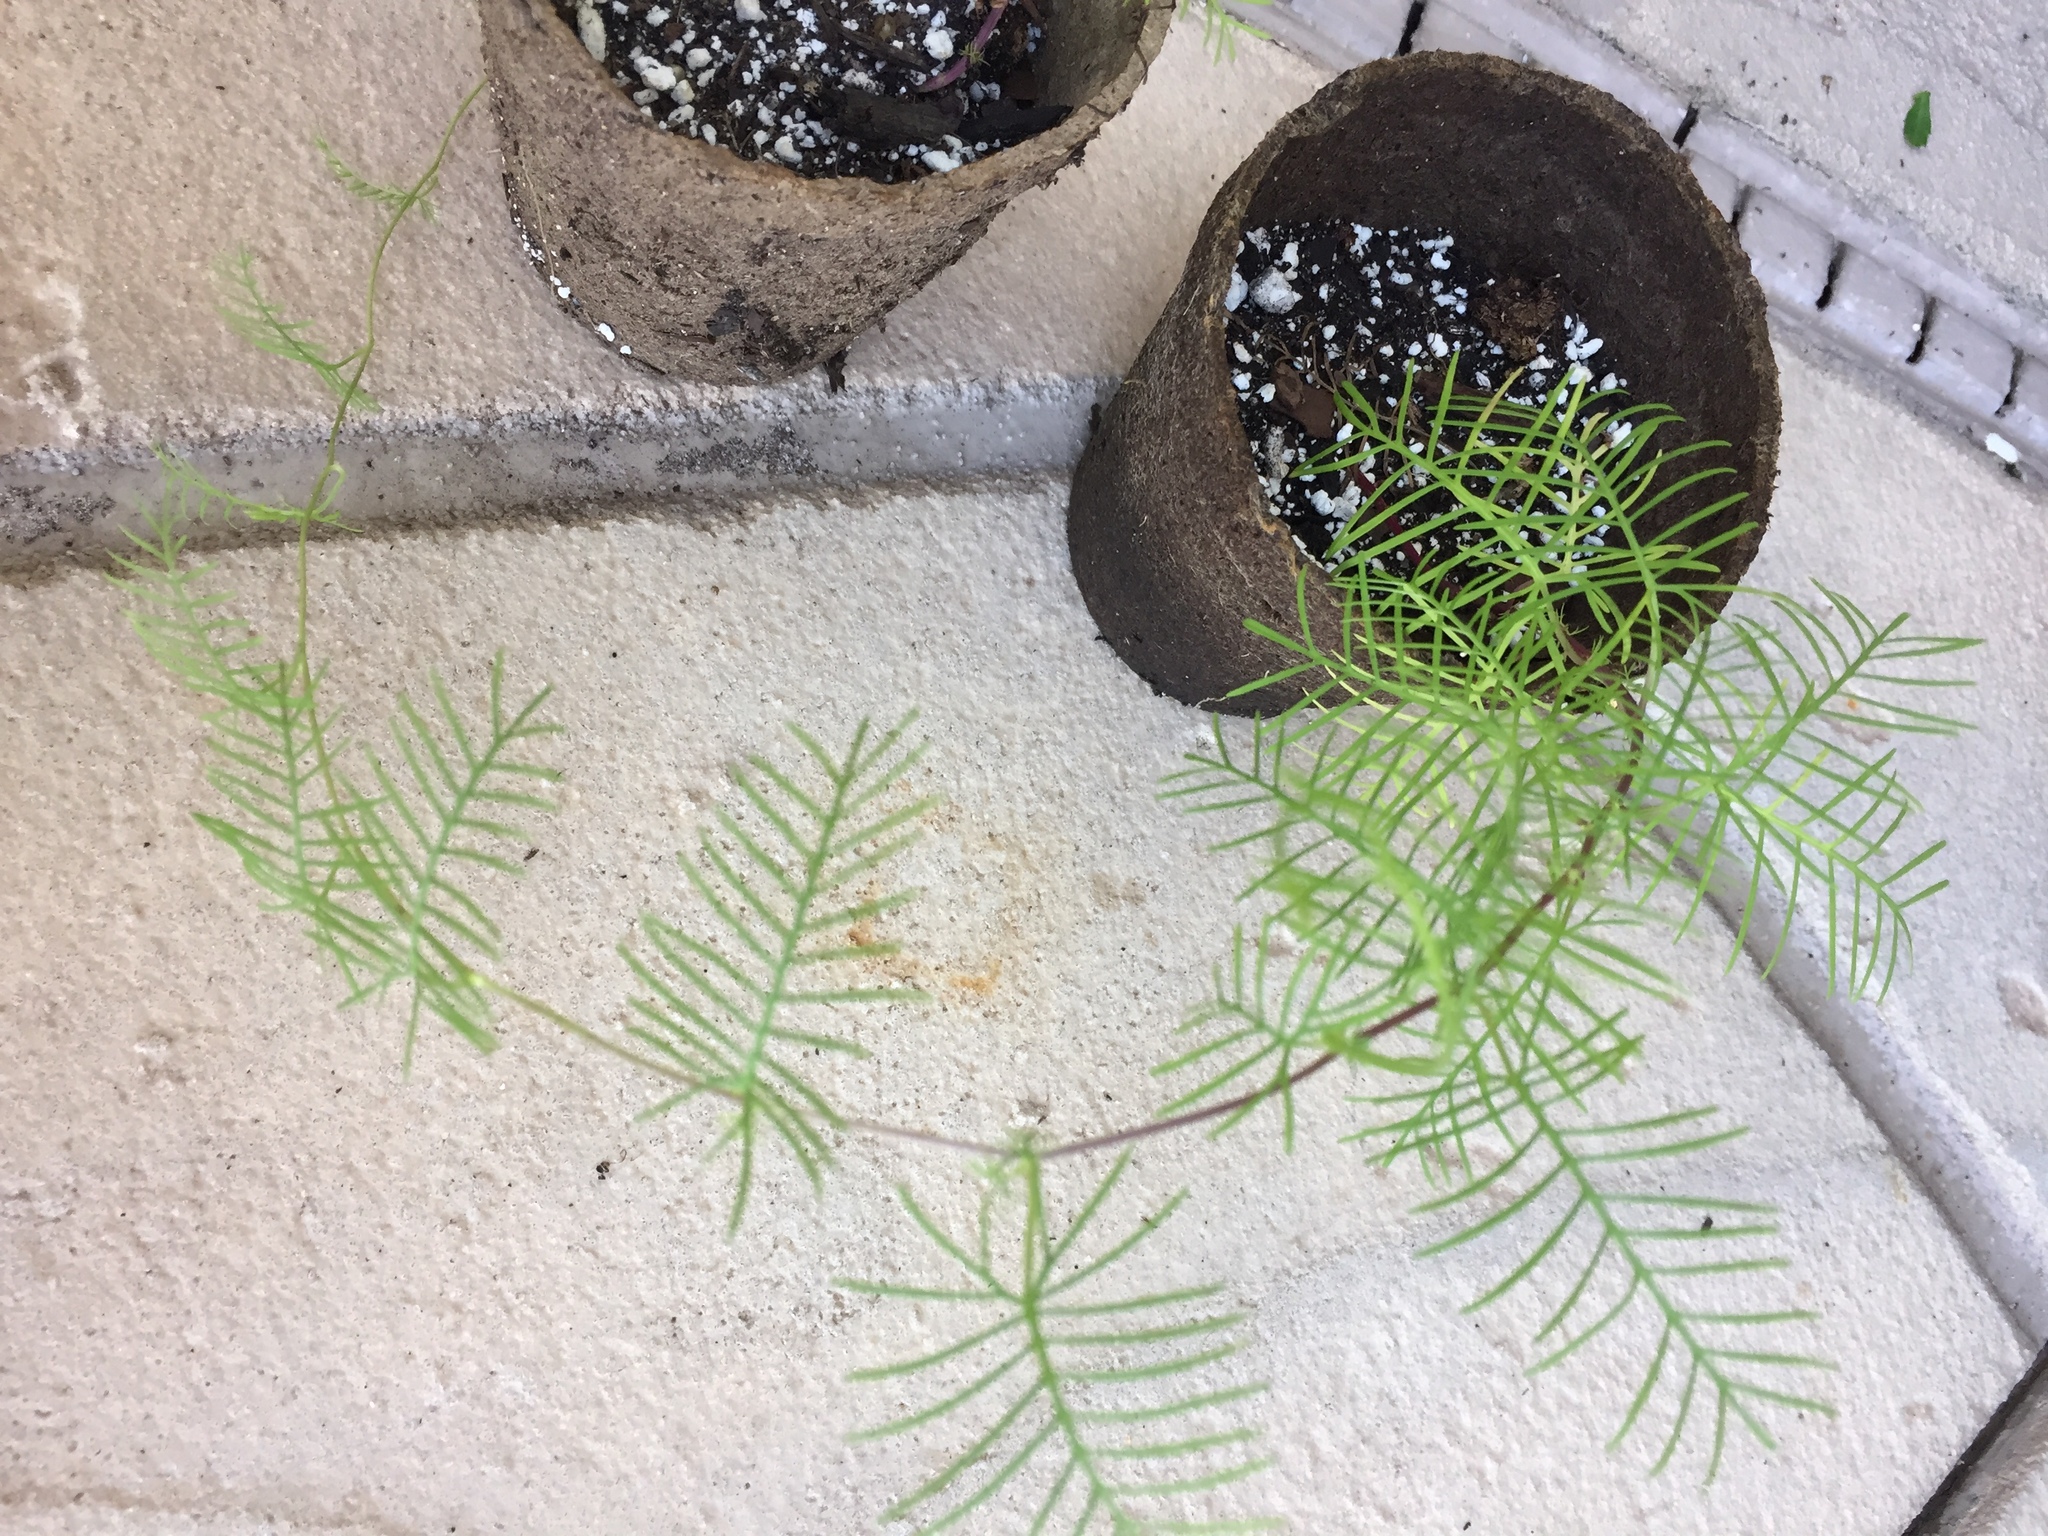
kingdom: Plantae
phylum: Tracheophyta
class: Magnoliopsida
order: Solanales
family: Convolvulaceae
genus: Ipomoea
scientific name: Ipomoea quamoclit
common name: Cypress vine
